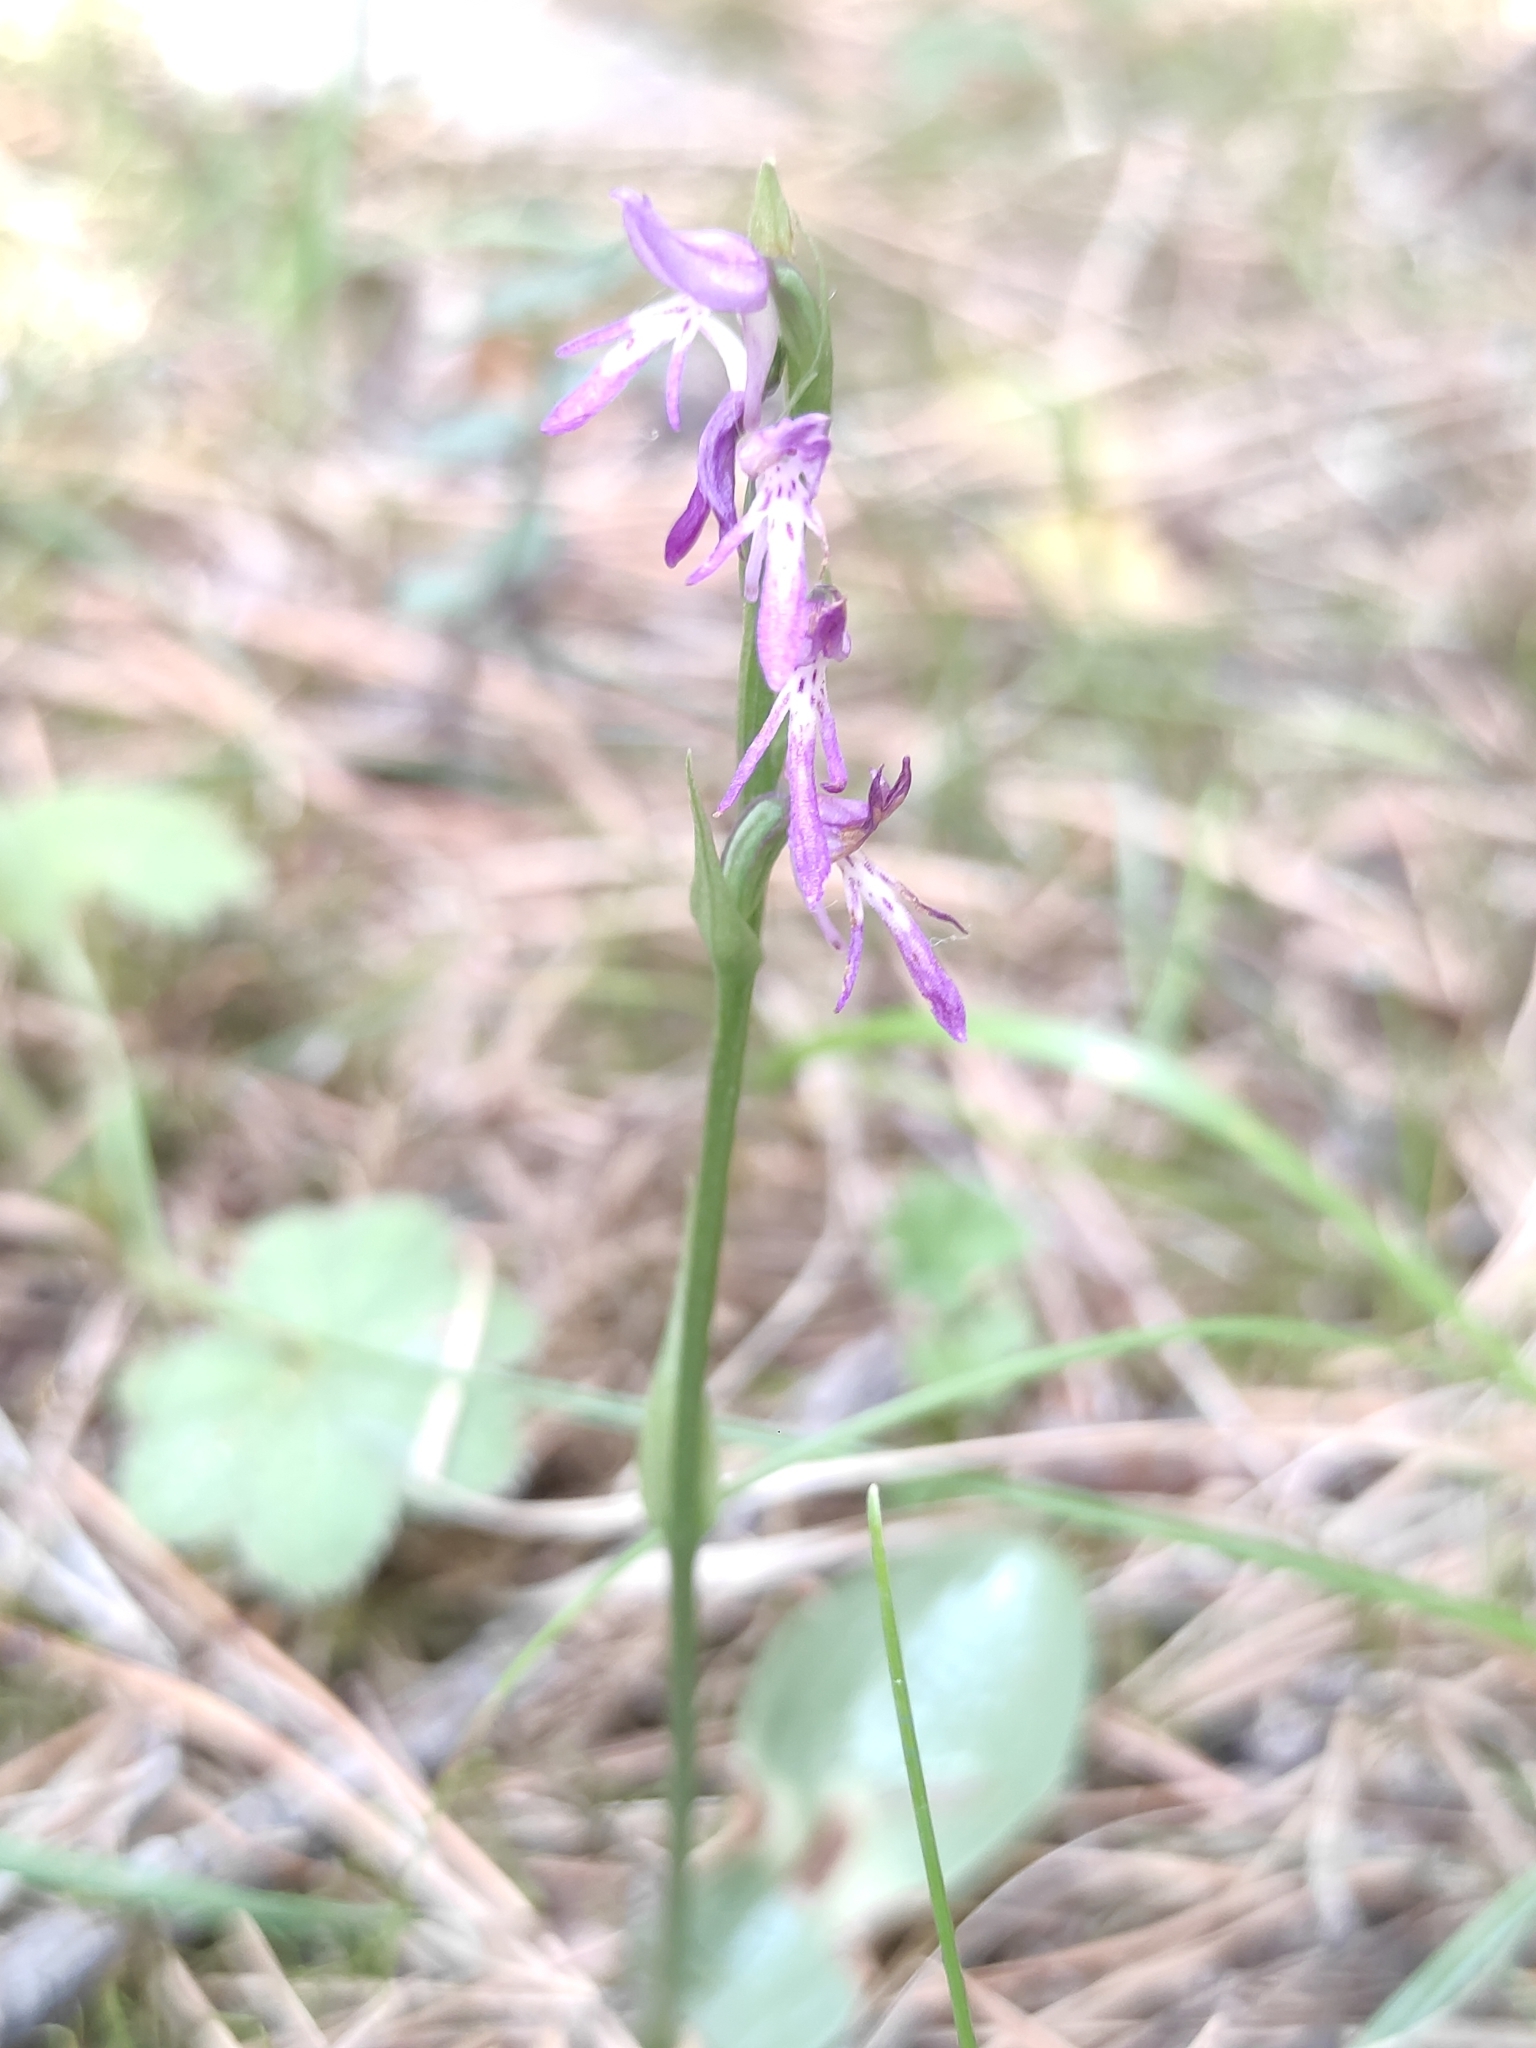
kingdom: Plantae
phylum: Tracheophyta
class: Liliopsida
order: Asparagales
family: Orchidaceae
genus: Hemipilia
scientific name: Hemipilia cucullata
